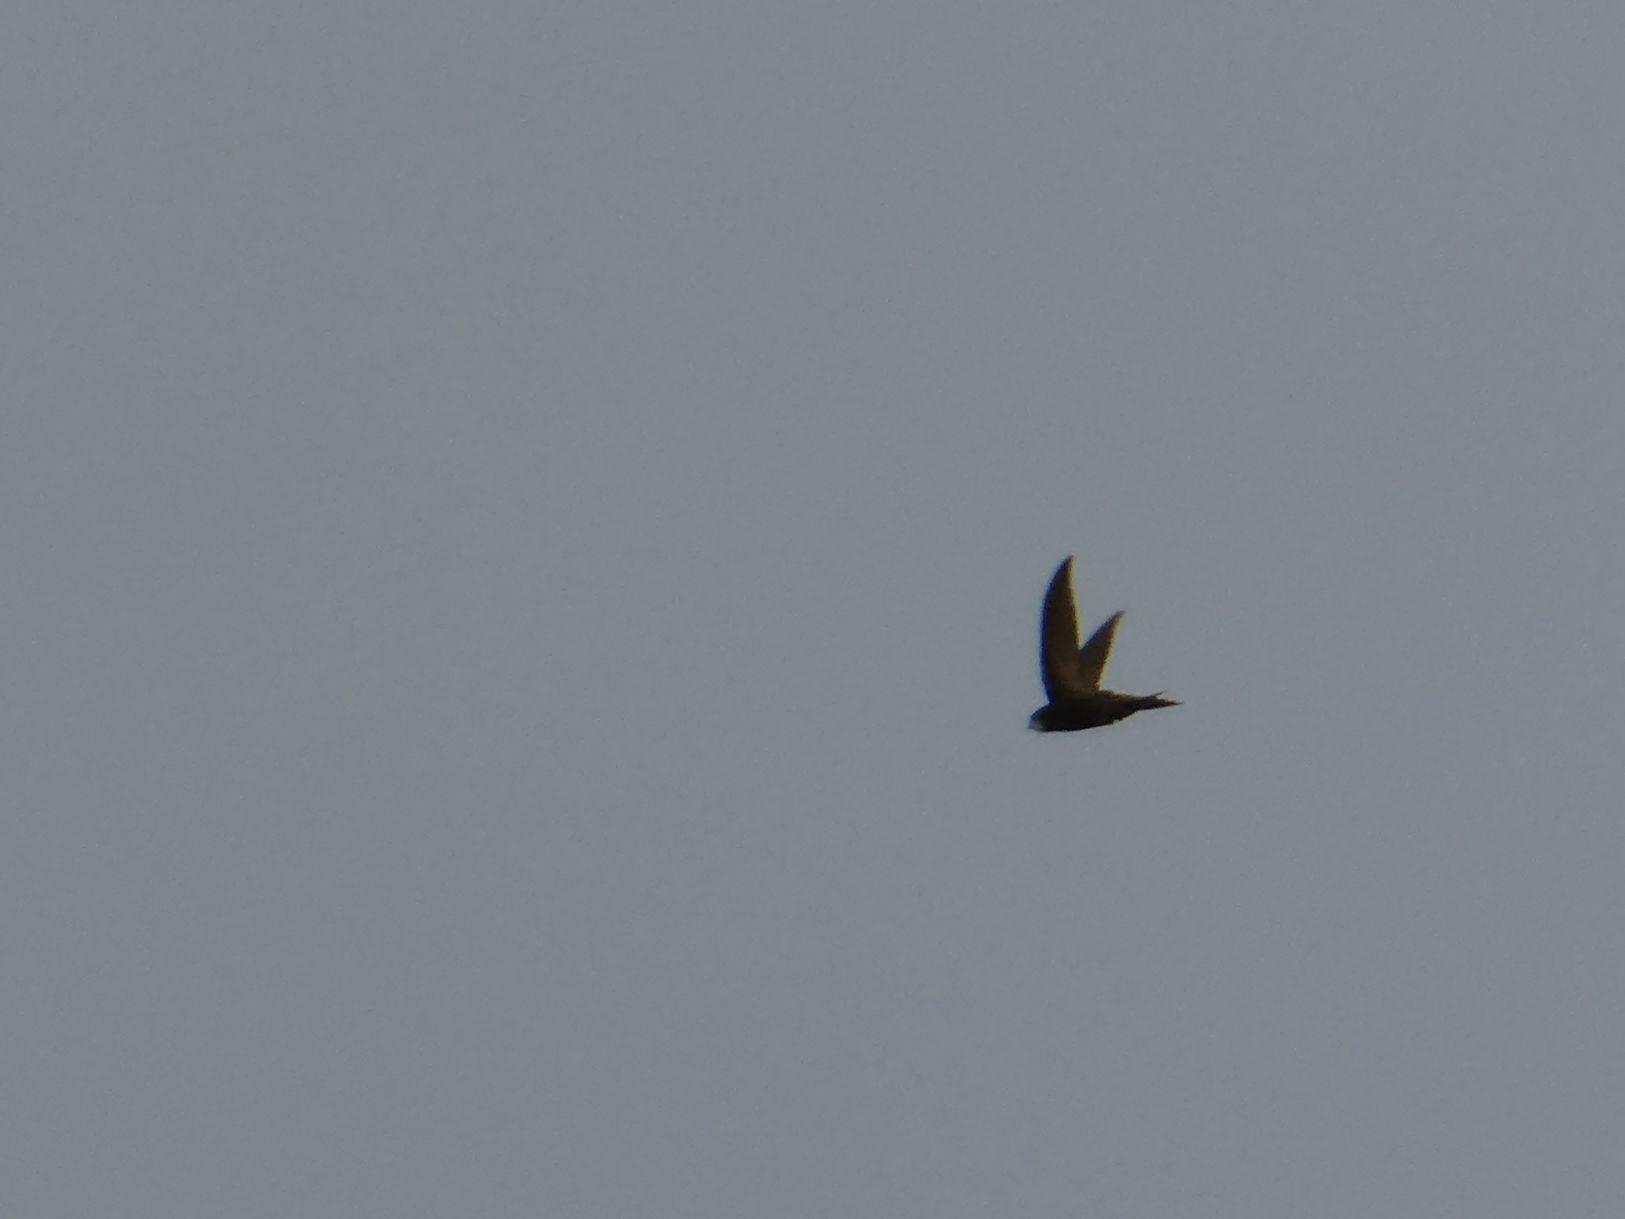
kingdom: Animalia
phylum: Chordata
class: Aves
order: Apodiformes
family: Apodidae
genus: Apus
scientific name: Apus apus
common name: Common swift
